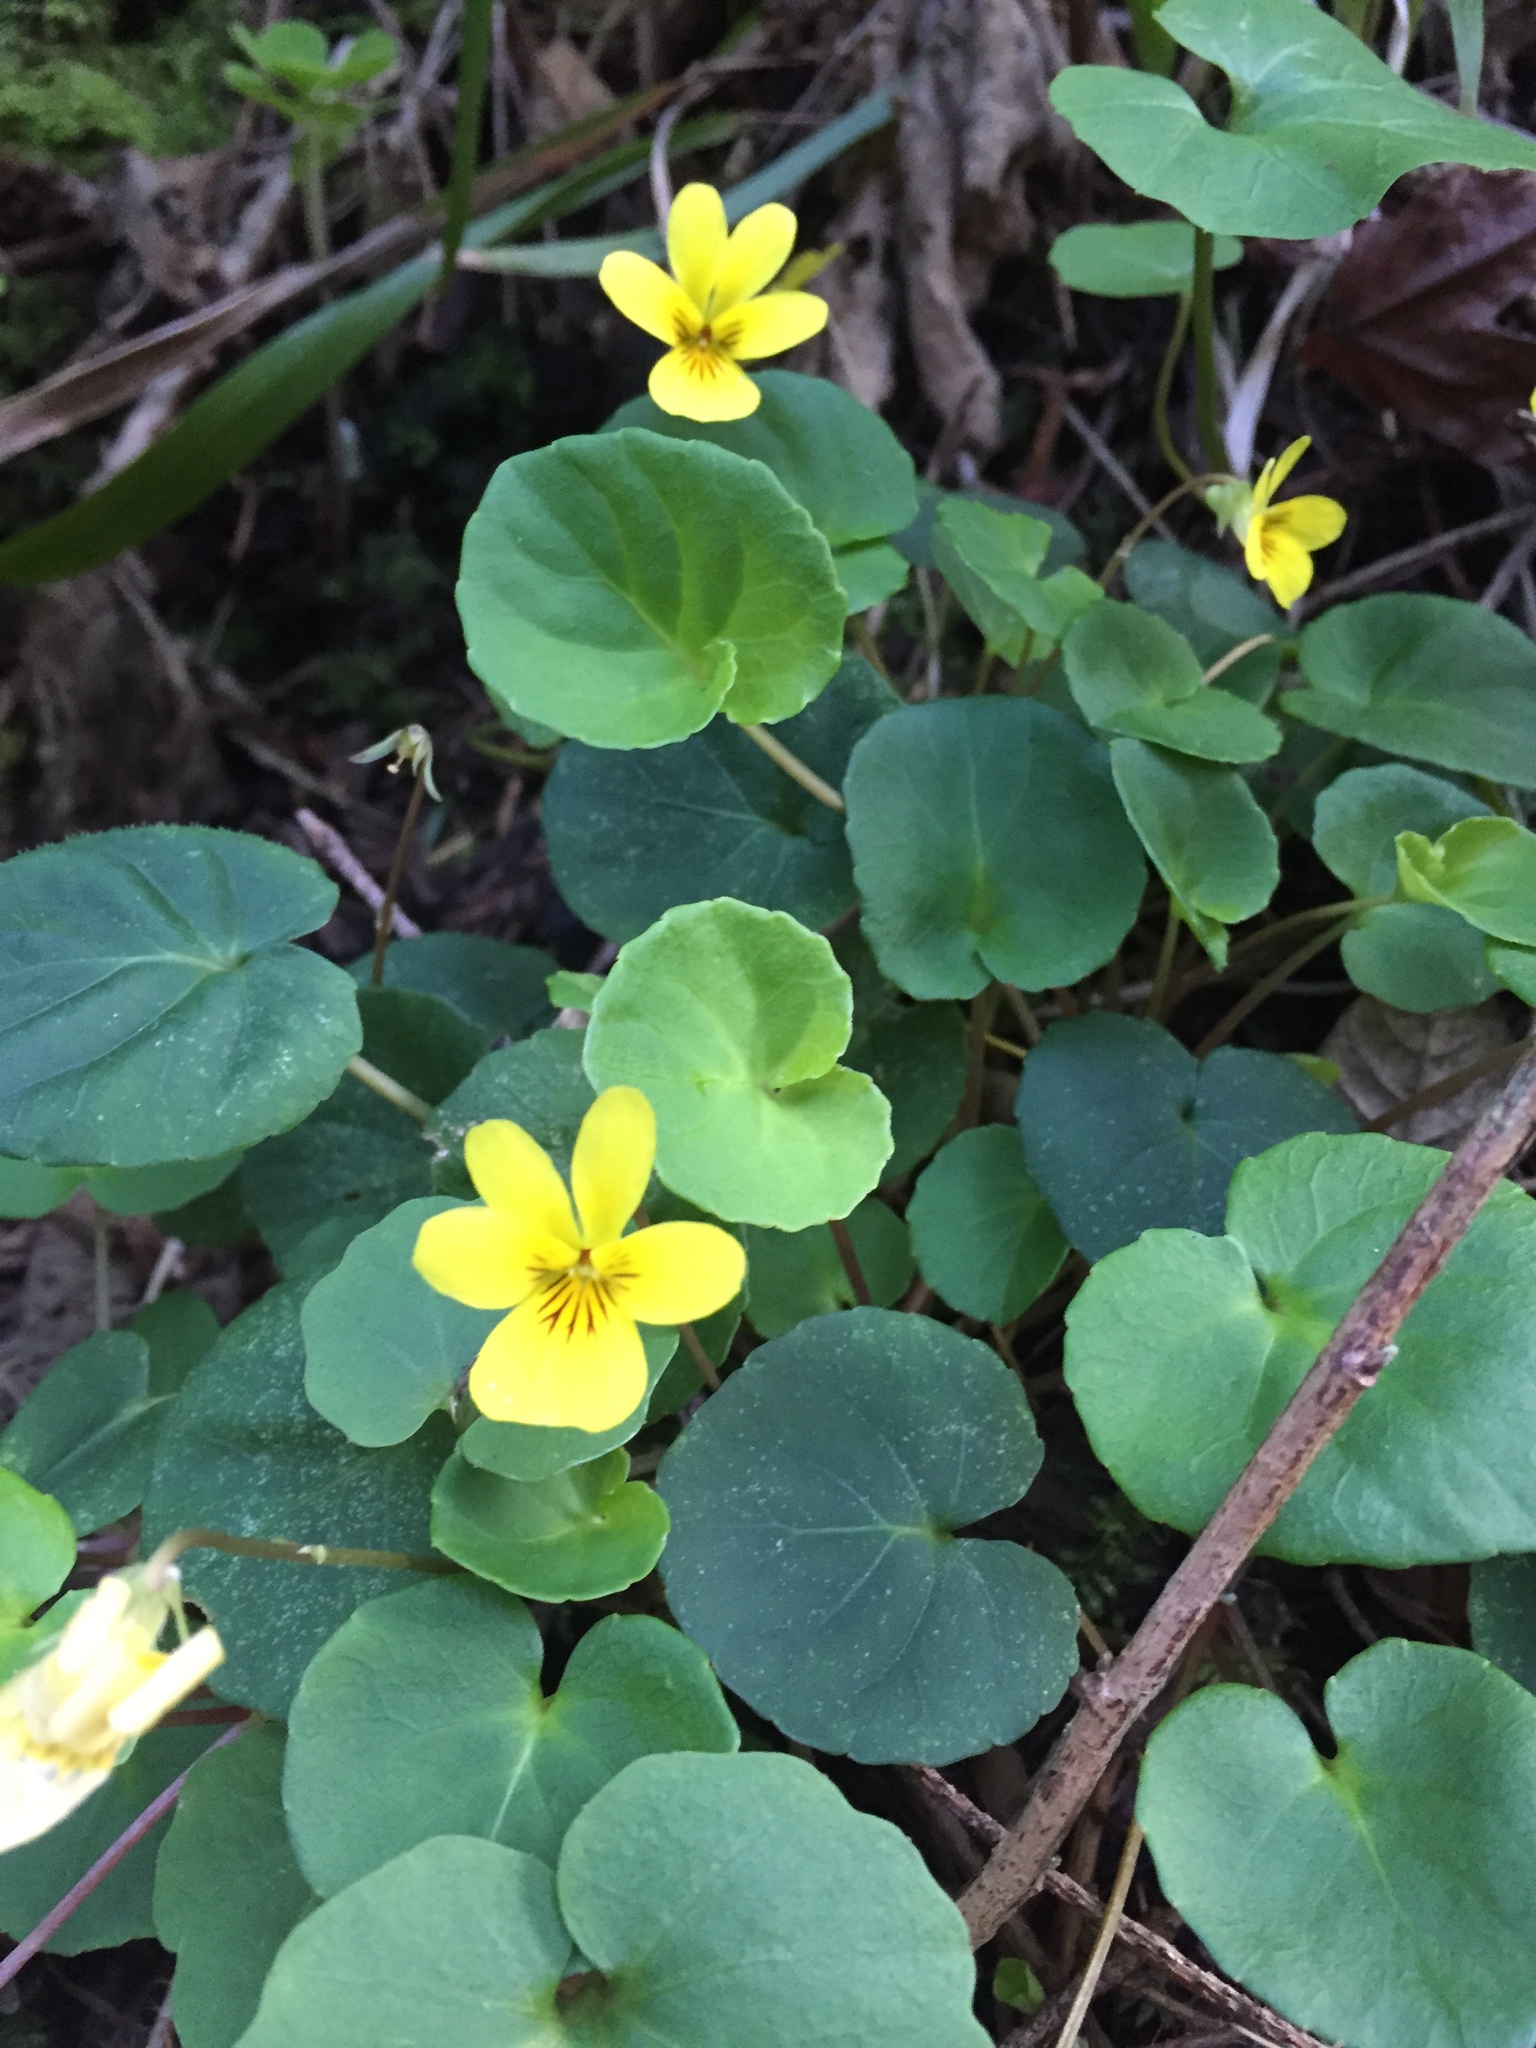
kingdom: Plantae
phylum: Tracheophyta
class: Magnoliopsida
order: Malpighiales
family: Violaceae
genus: Viola
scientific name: Viola sempervirens
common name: Evergreen violet
